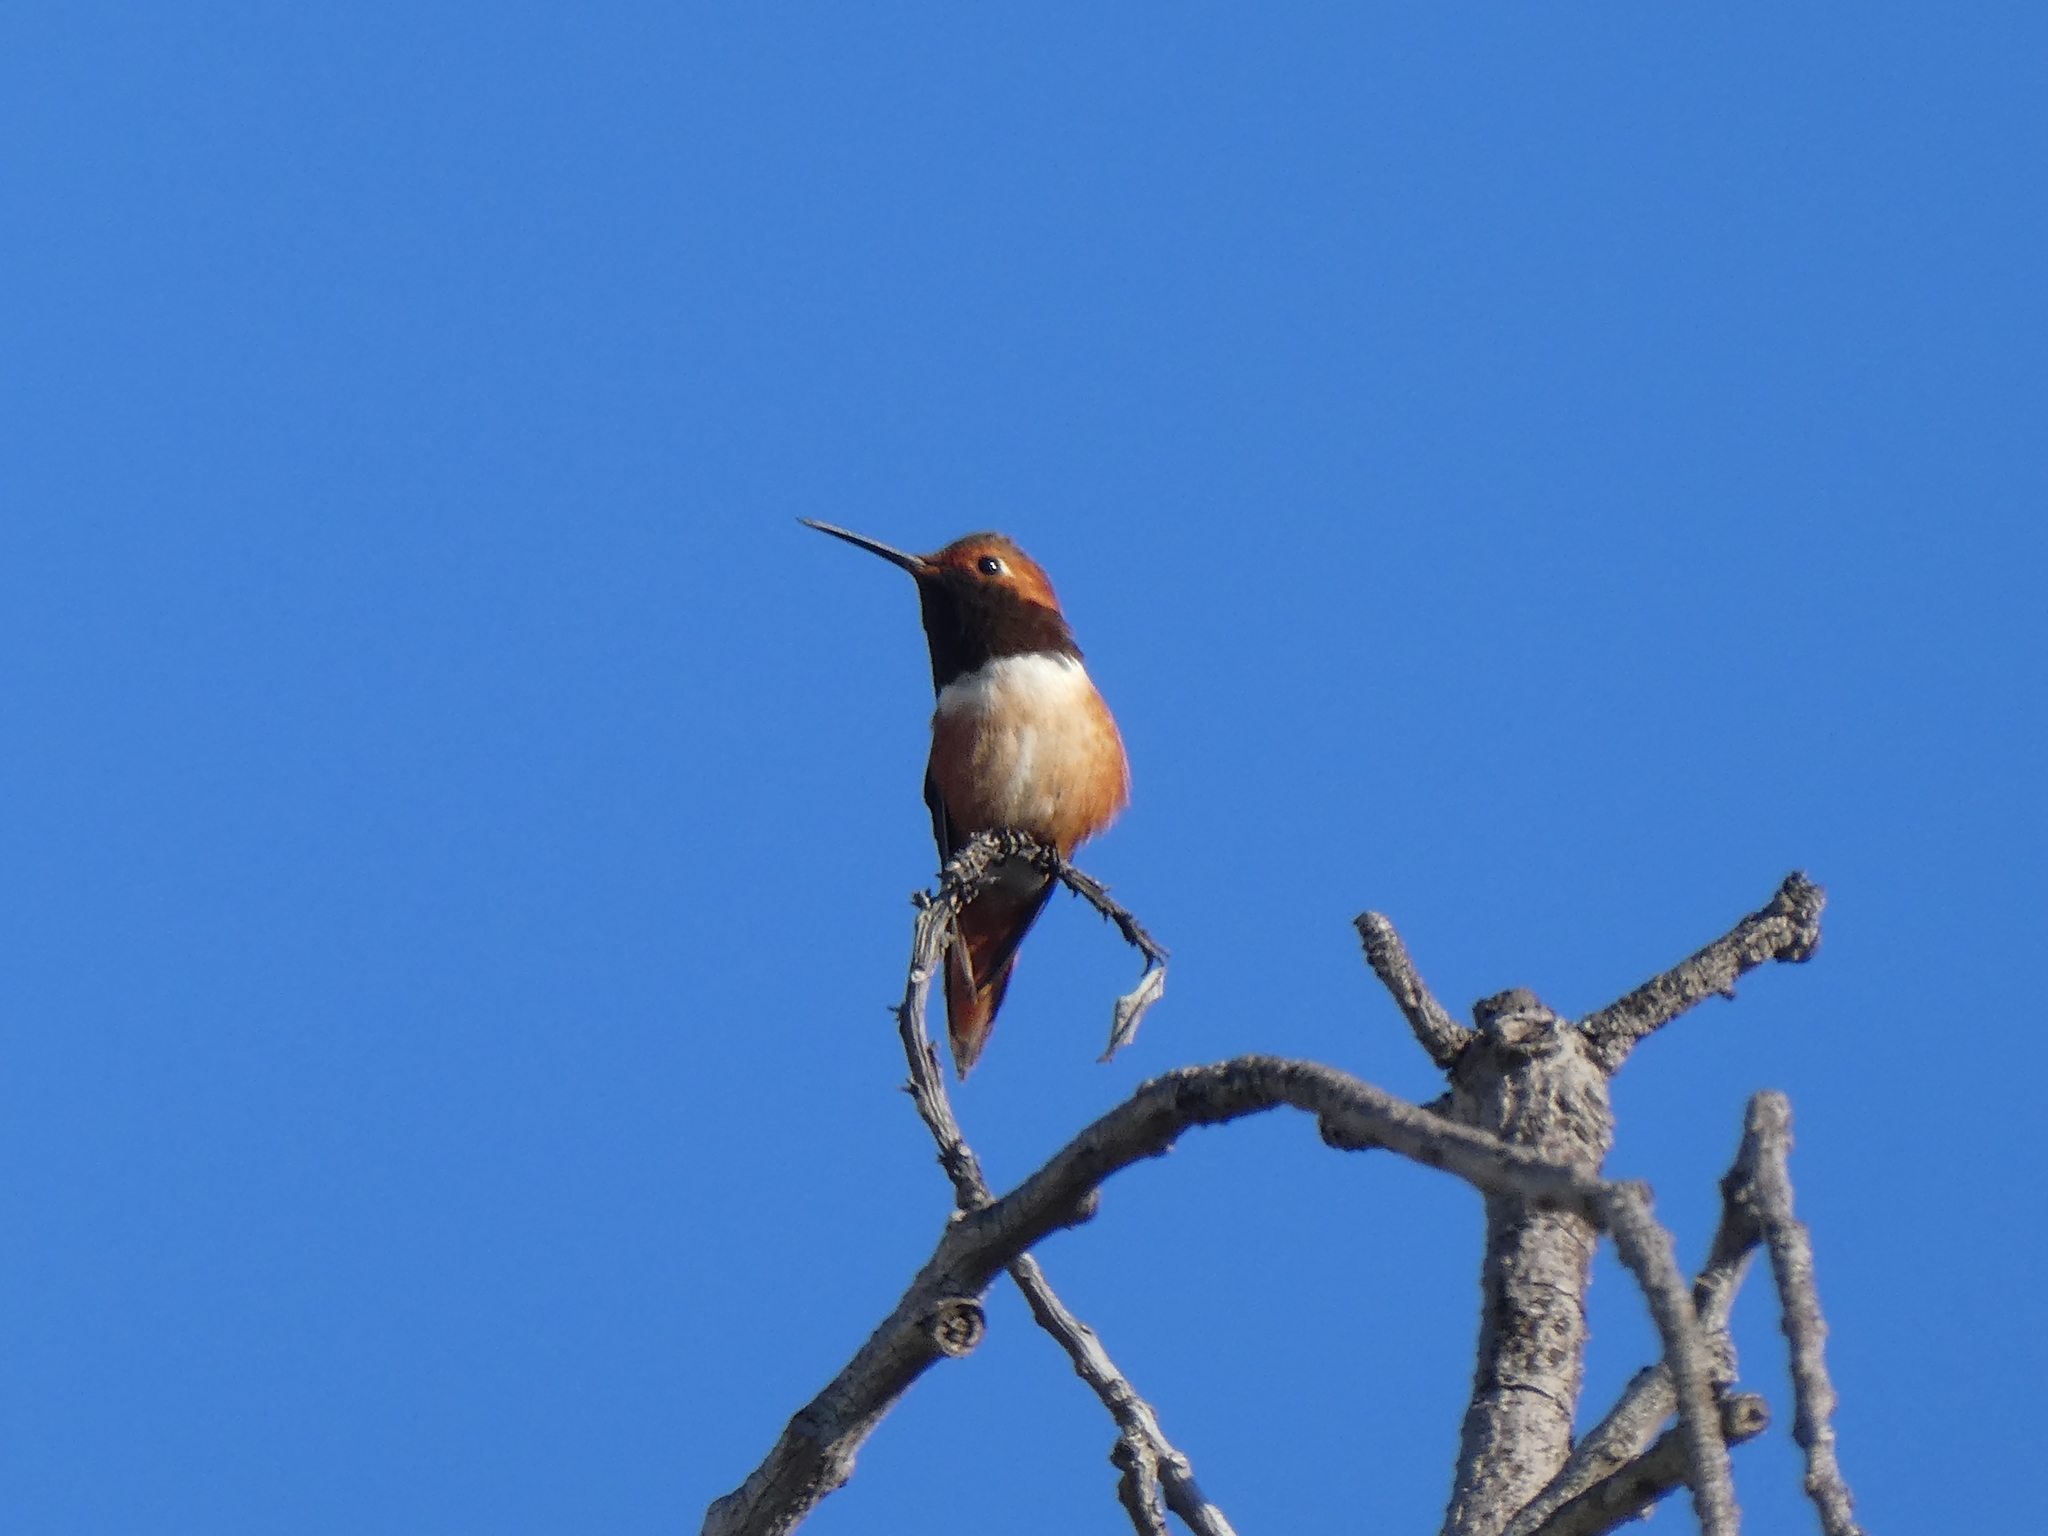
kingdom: Animalia
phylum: Chordata
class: Aves
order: Apodiformes
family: Trochilidae
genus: Selasphorus
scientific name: Selasphorus sasin
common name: Allen's hummingbird
